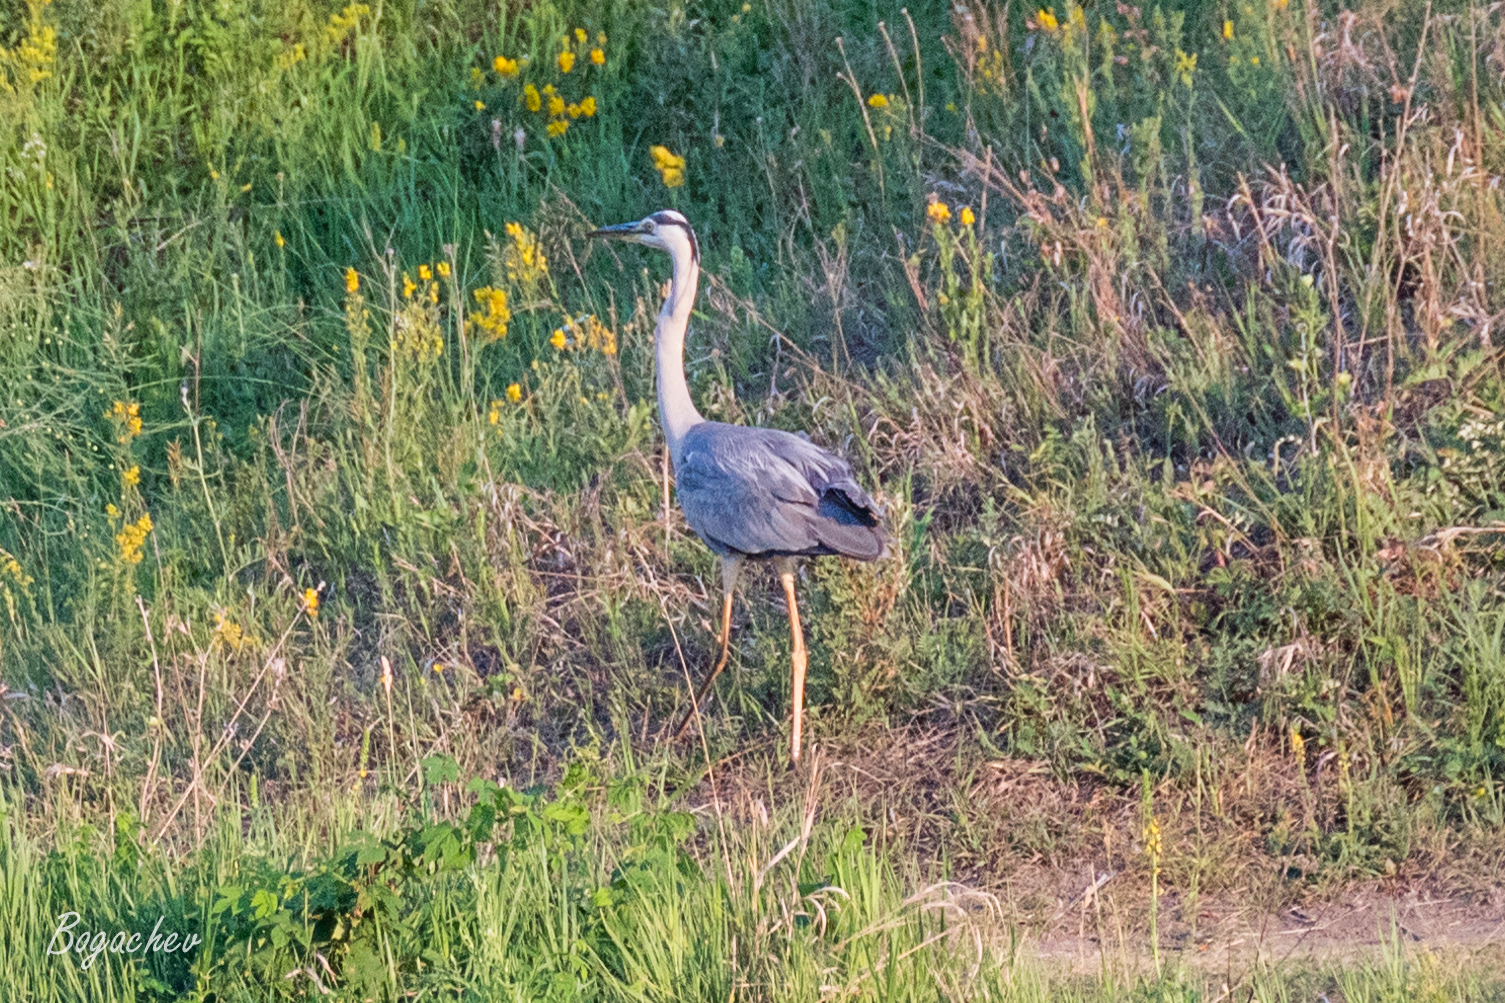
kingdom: Animalia
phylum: Chordata
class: Aves
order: Pelecaniformes
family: Ardeidae
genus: Ardea
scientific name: Ardea cinerea
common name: Grey heron
